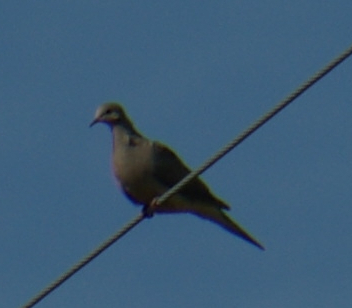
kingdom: Animalia
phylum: Chordata
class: Aves
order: Columbiformes
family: Columbidae
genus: Zenaida
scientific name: Zenaida macroura
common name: Mourning dove
